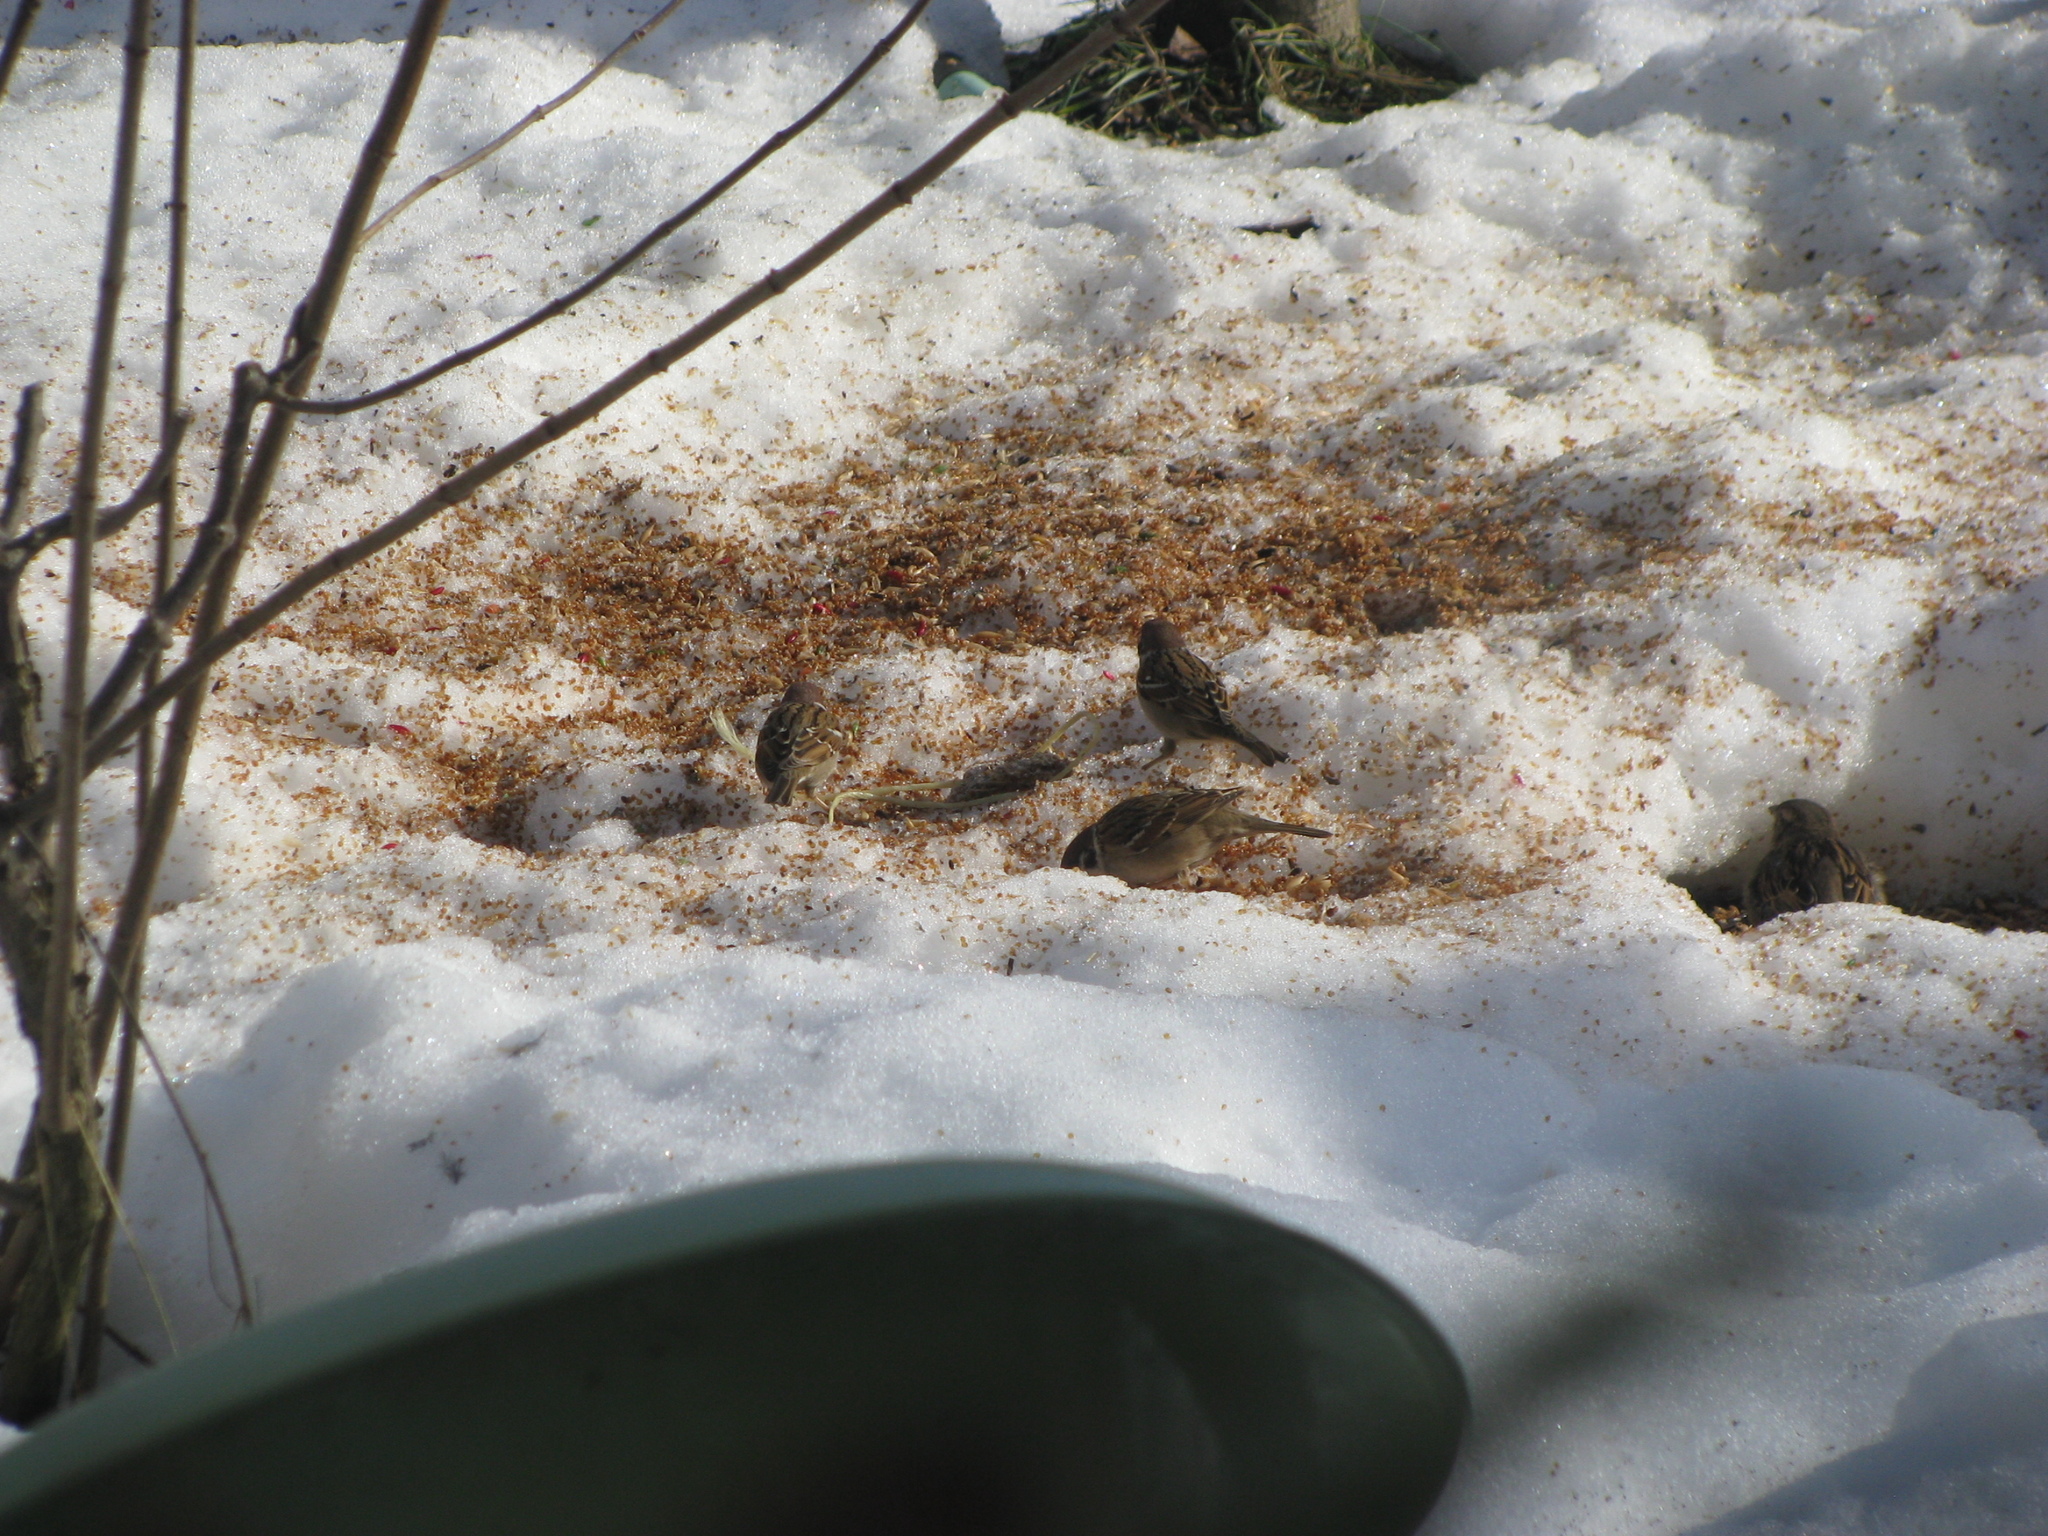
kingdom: Animalia
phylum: Chordata
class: Aves
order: Passeriformes
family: Passeridae
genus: Passer
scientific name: Passer montanus
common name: Eurasian tree sparrow
